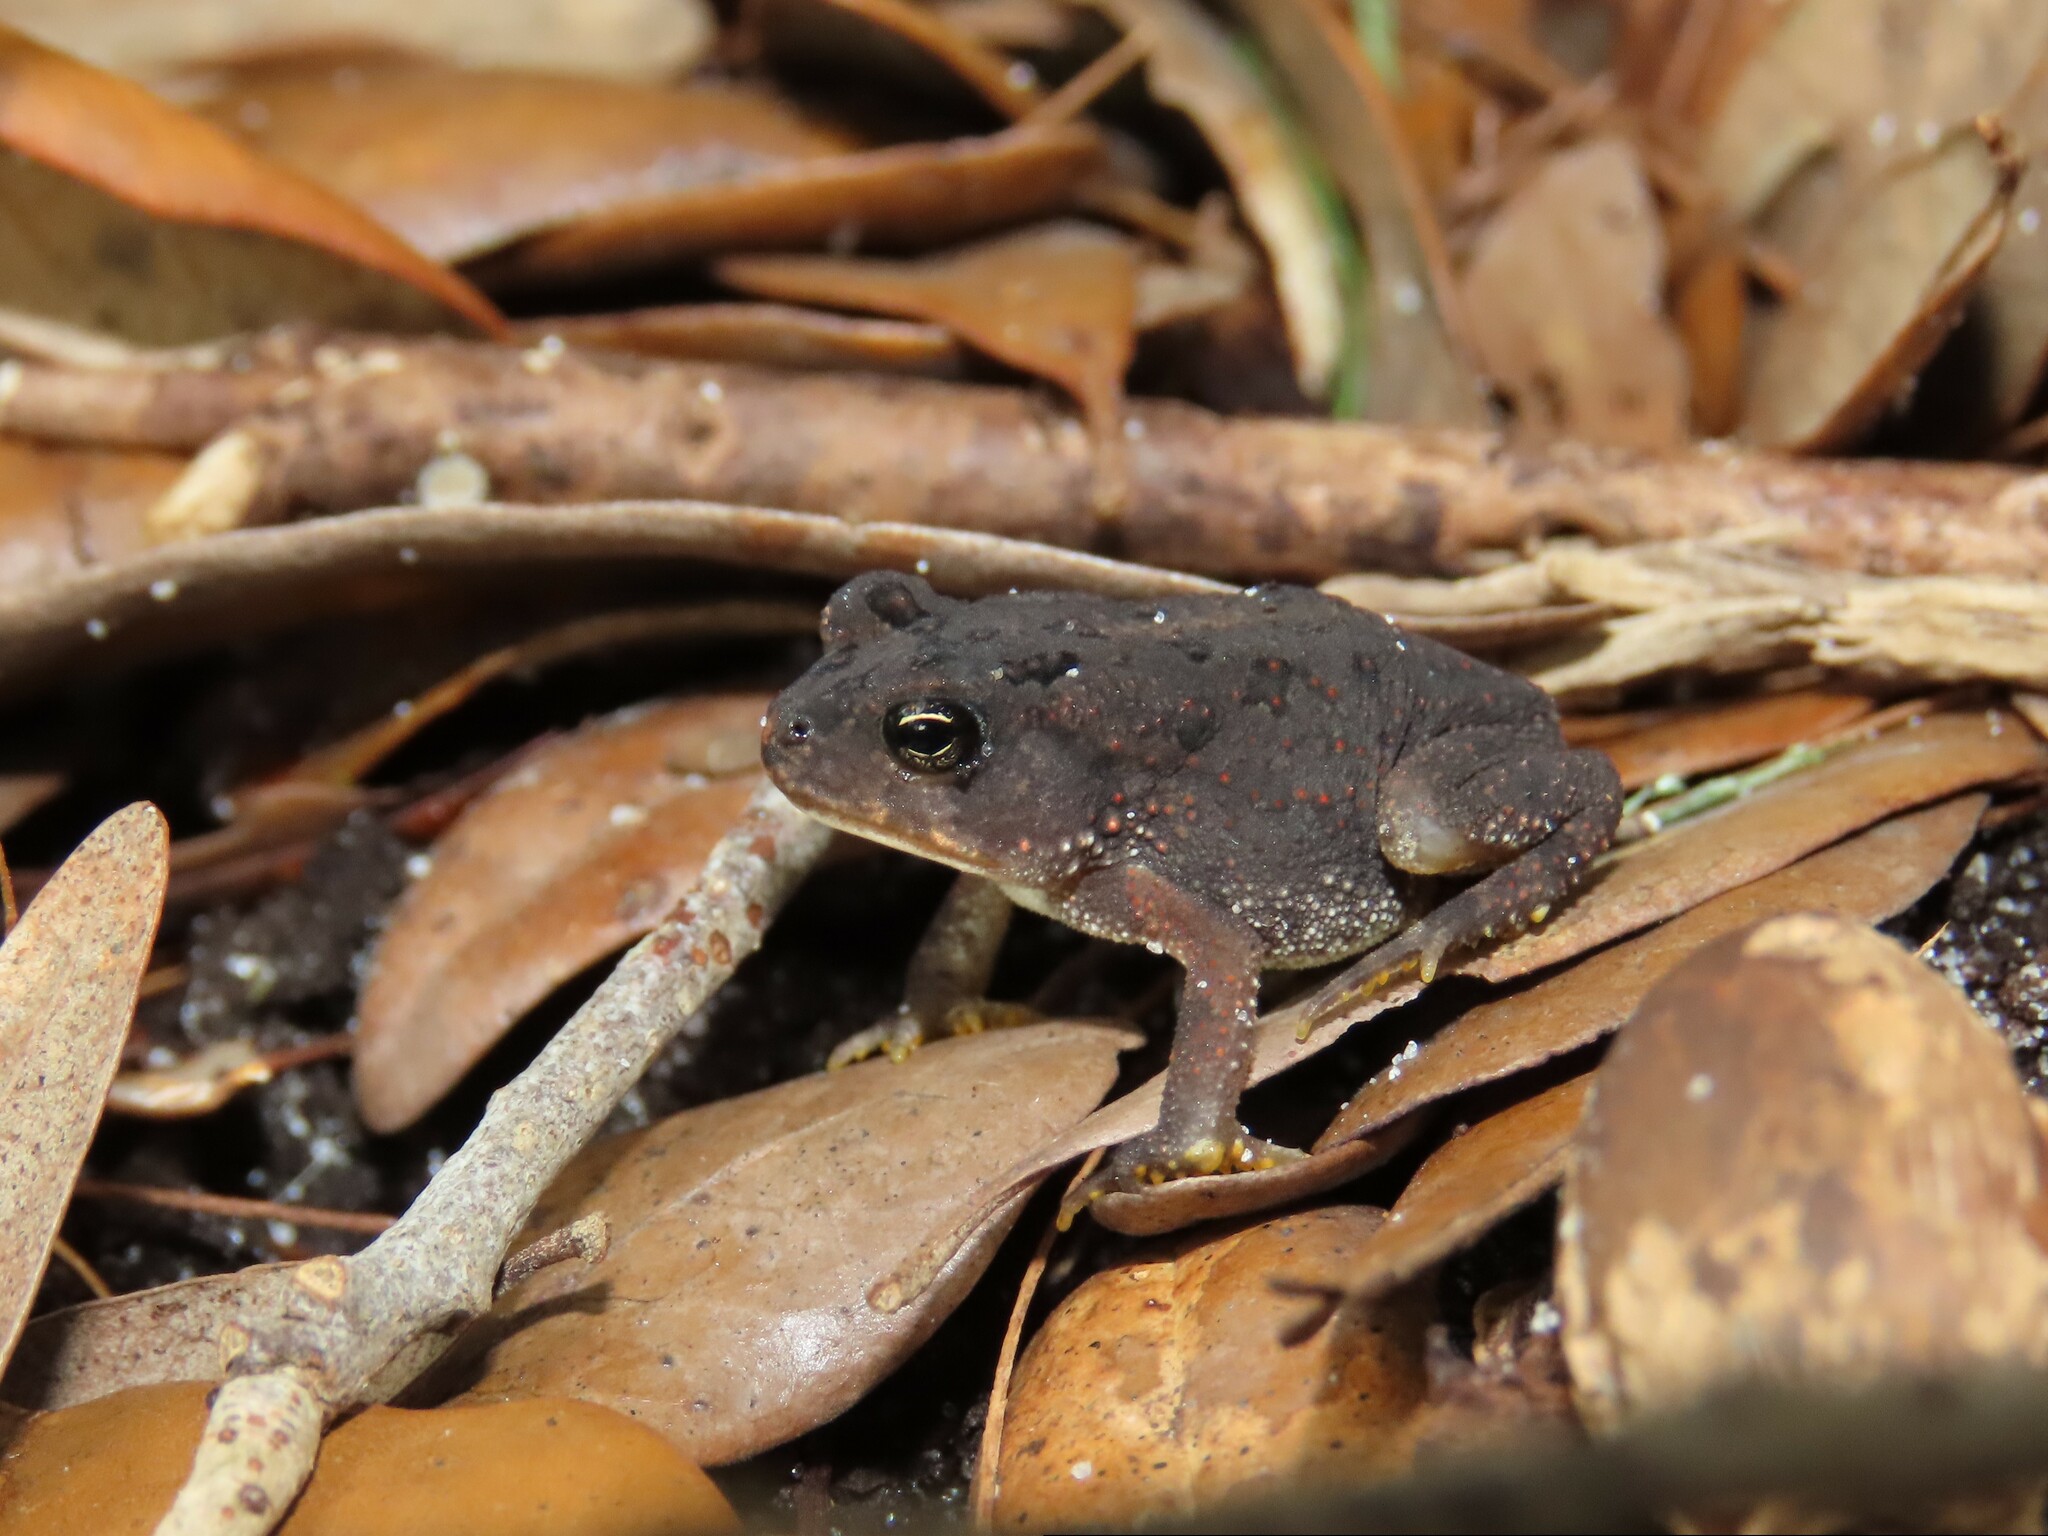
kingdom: Animalia
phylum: Chordata
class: Amphibia
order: Anura
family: Bufonidae
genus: Anaxyrus
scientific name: Anaxyrus terrestris
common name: Southern toad
